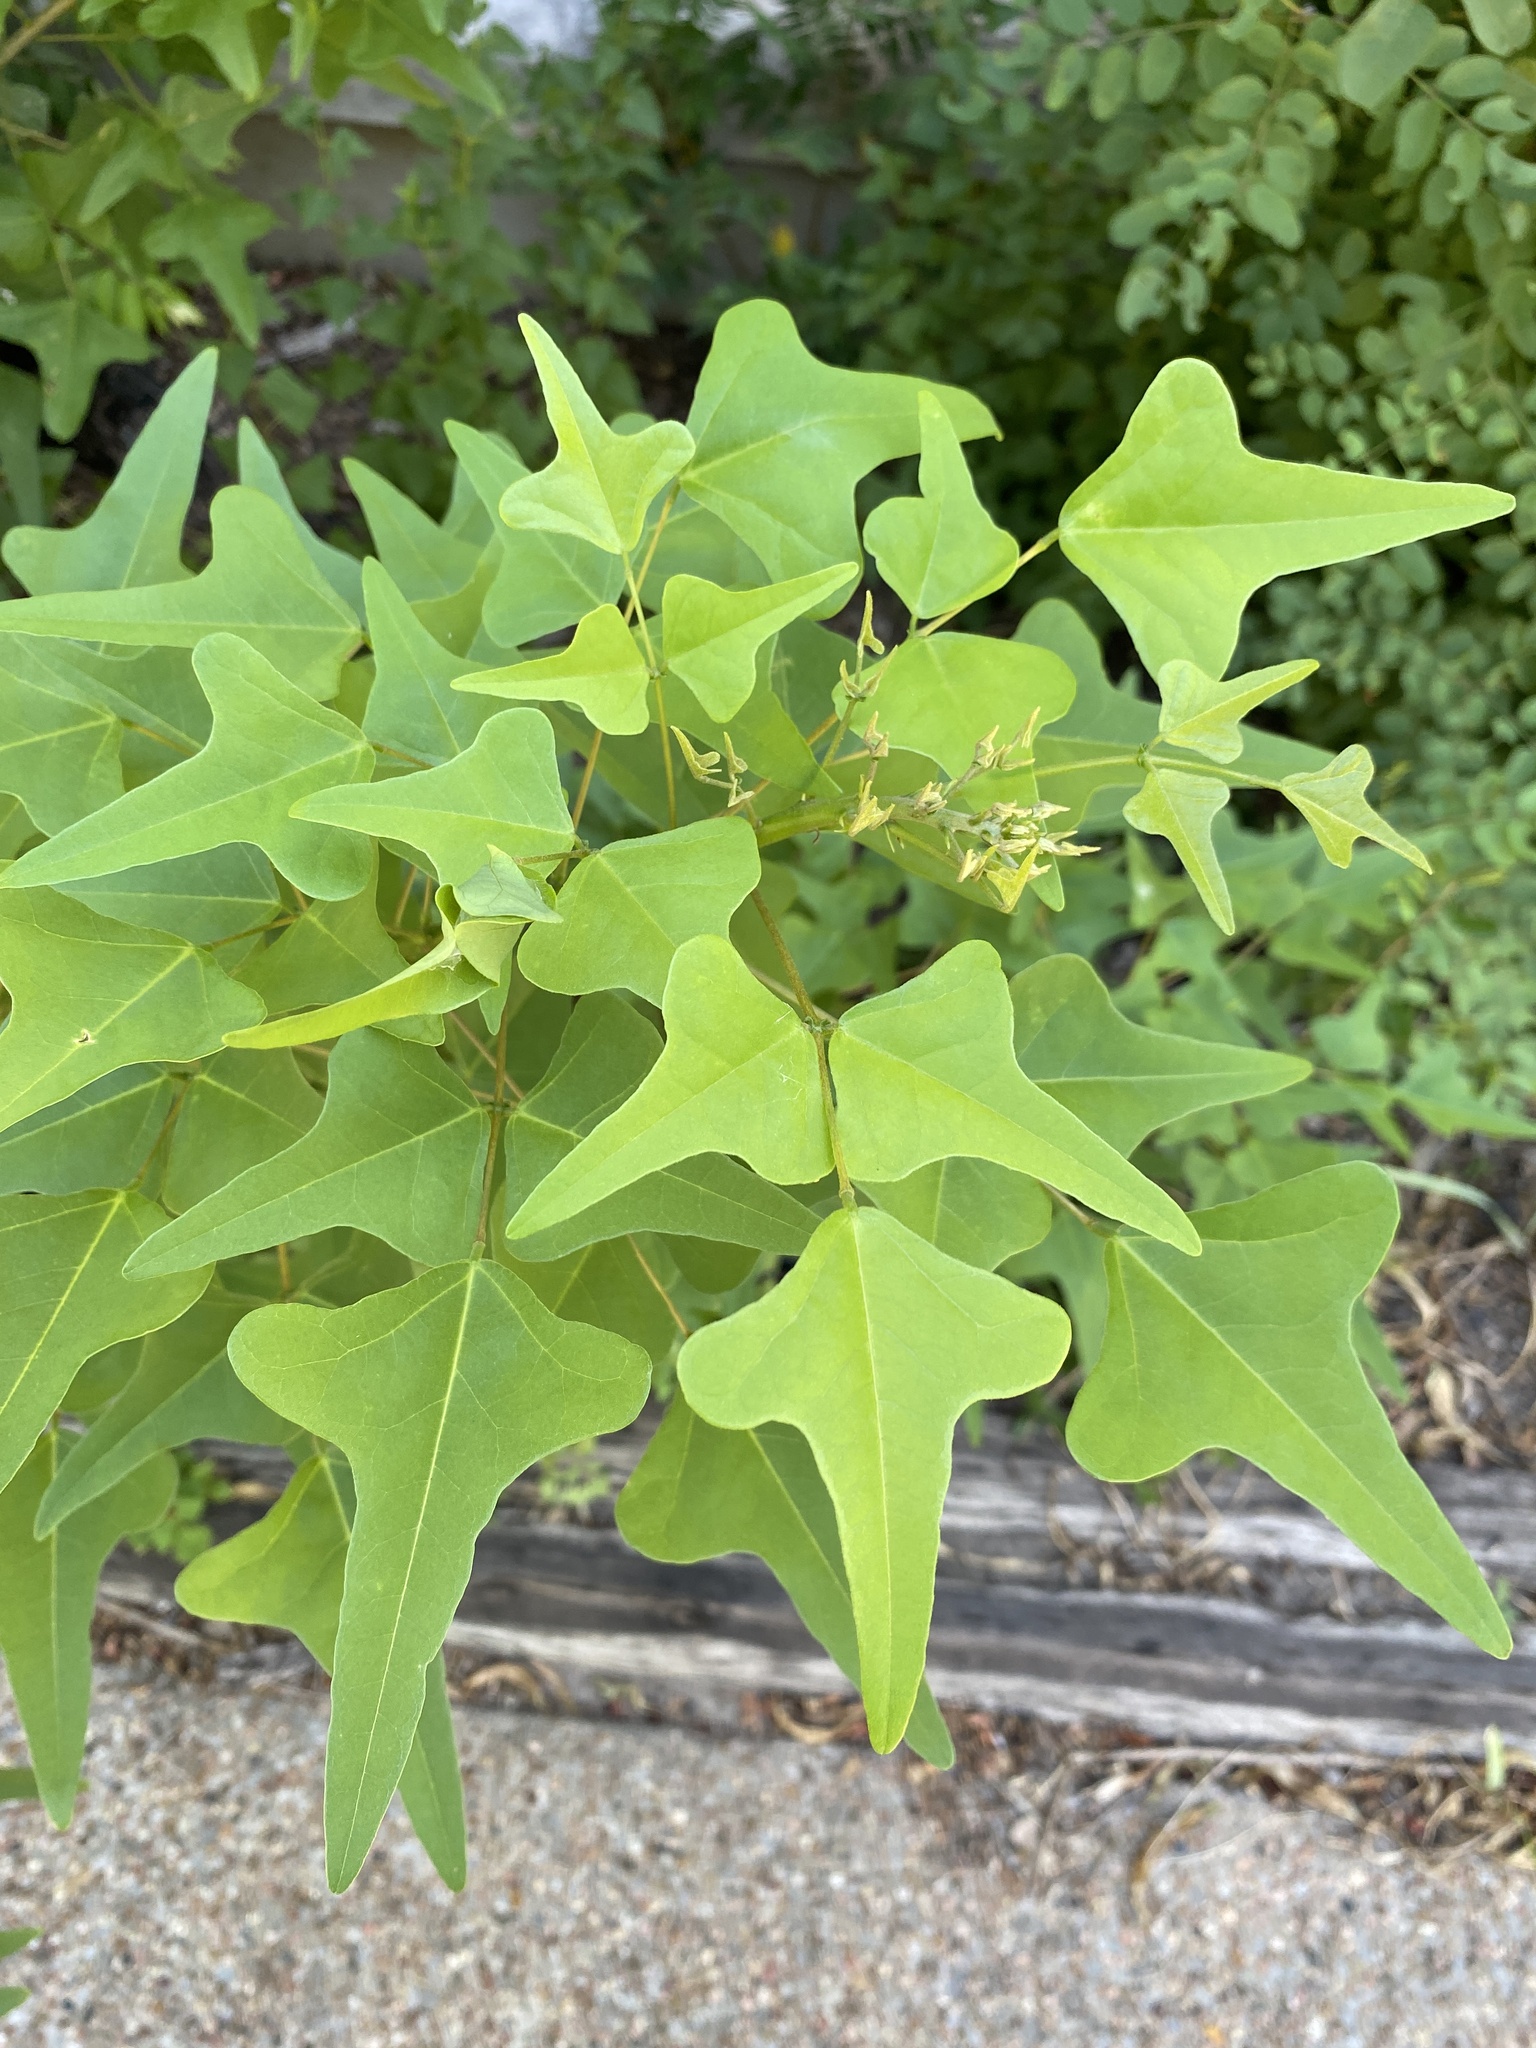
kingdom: Plantae
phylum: Tracheophyta
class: Magnoliopsida
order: Fabales
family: Fabaceae
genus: Erythrina
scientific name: Erythrina herbacea
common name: Coral-bean
